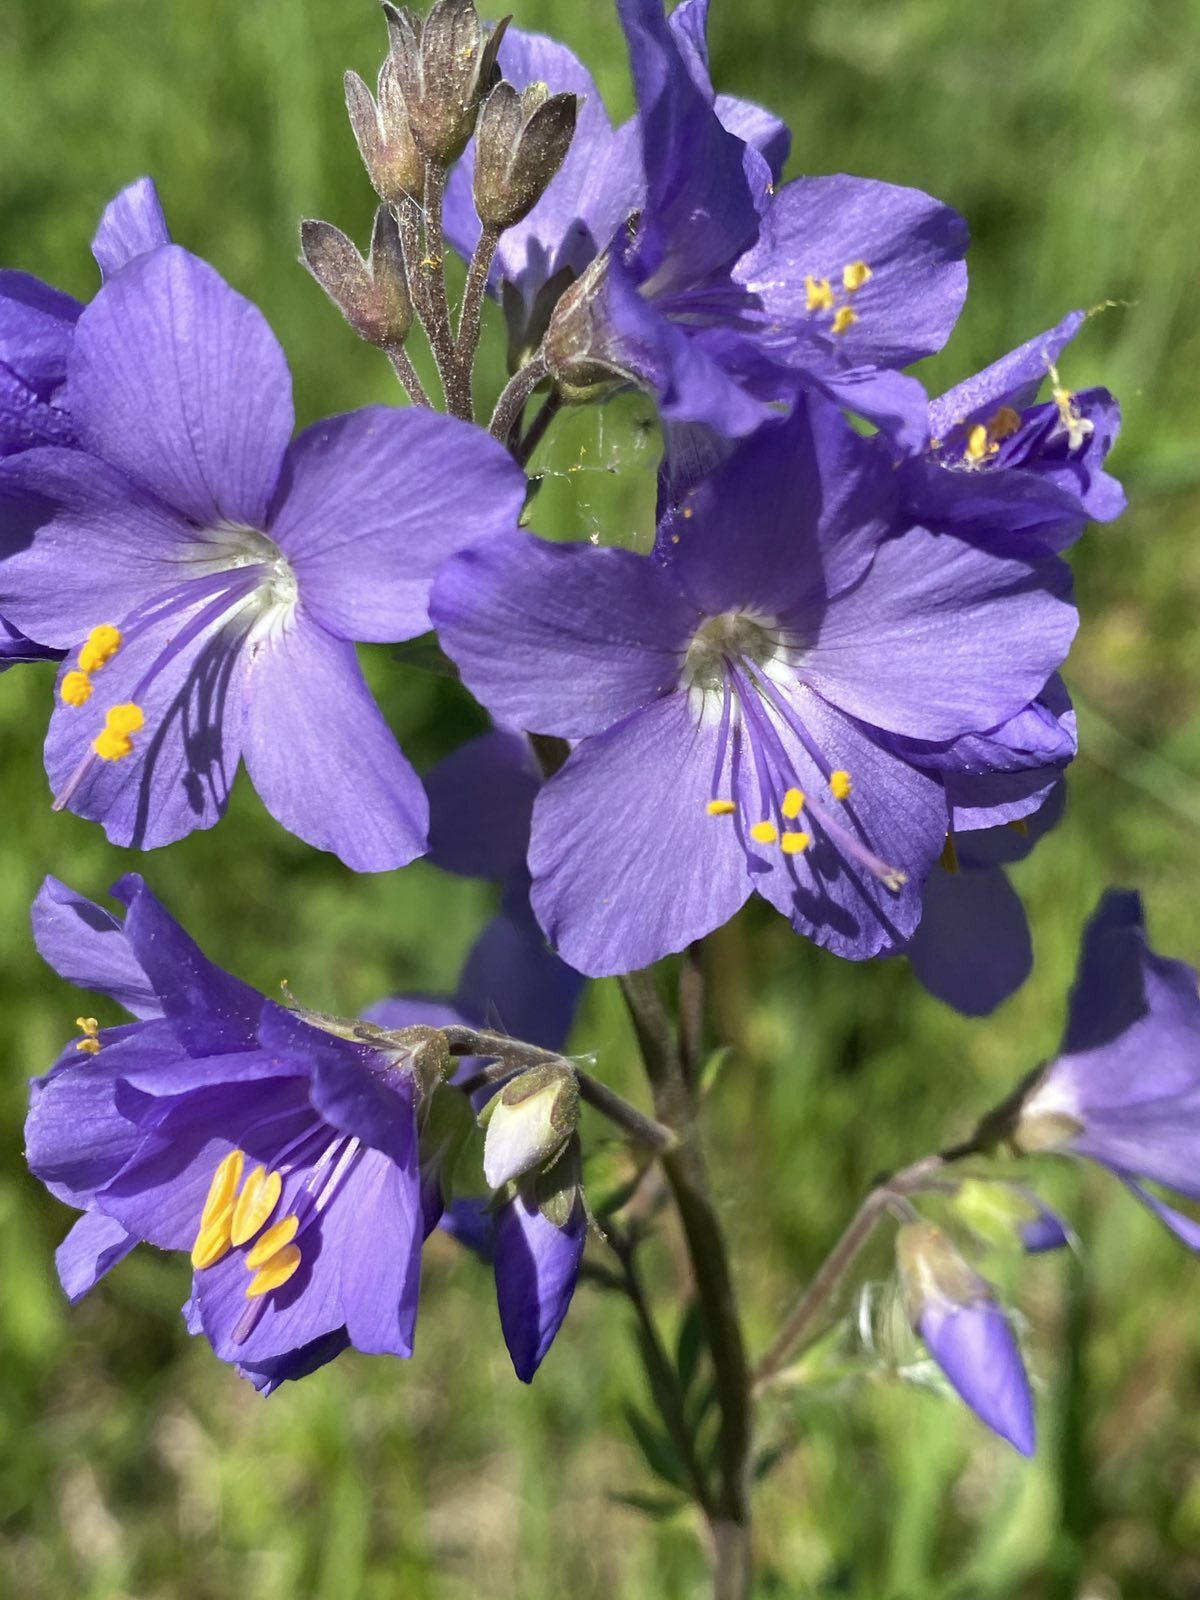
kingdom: Plantae
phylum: Tracheophyta
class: Magnoliopsida
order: Ericales
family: Polemoniaceae
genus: Polemonium
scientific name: Polemonium caeruleum
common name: Jacob's-ladder
